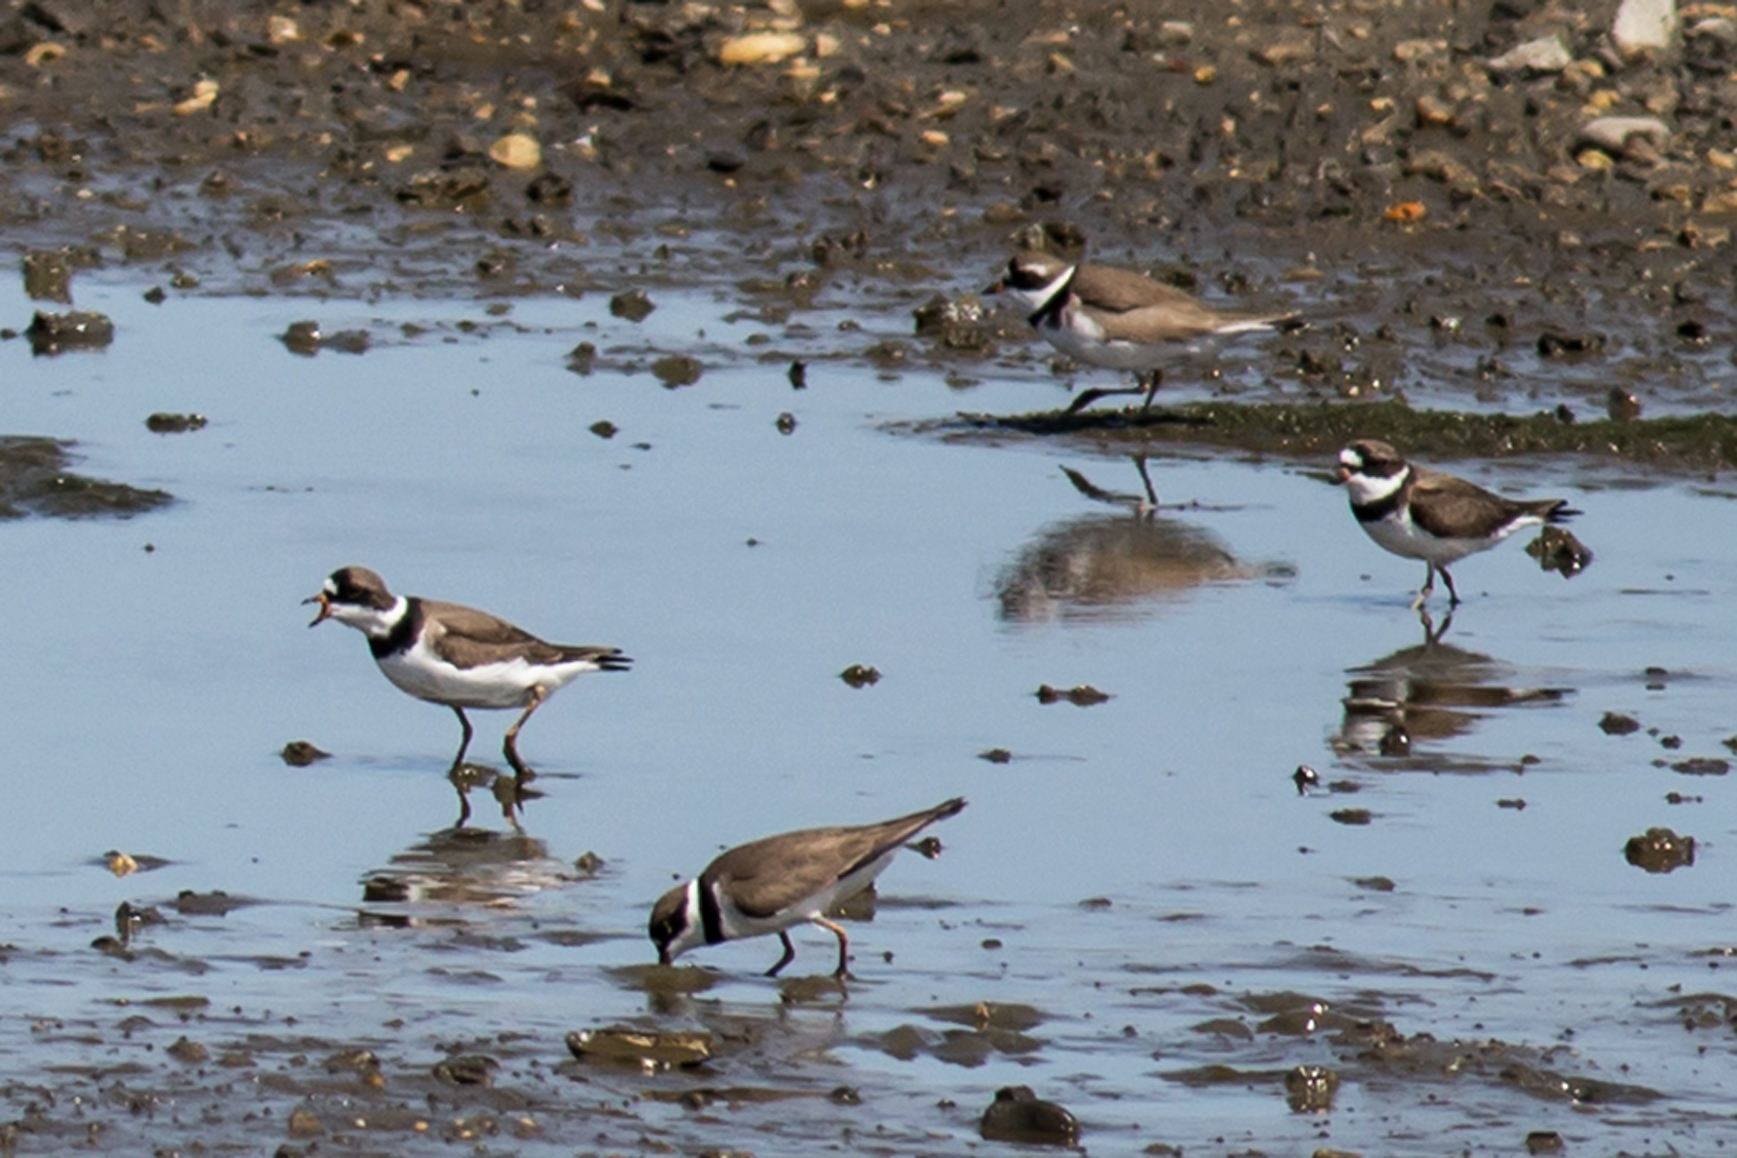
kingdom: Animalia
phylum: Chordata
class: Aves
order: Charadriiformes
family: Charadriidae
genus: Charadrius
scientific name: Charadrius semipalmatus
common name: Semipalmated plover
